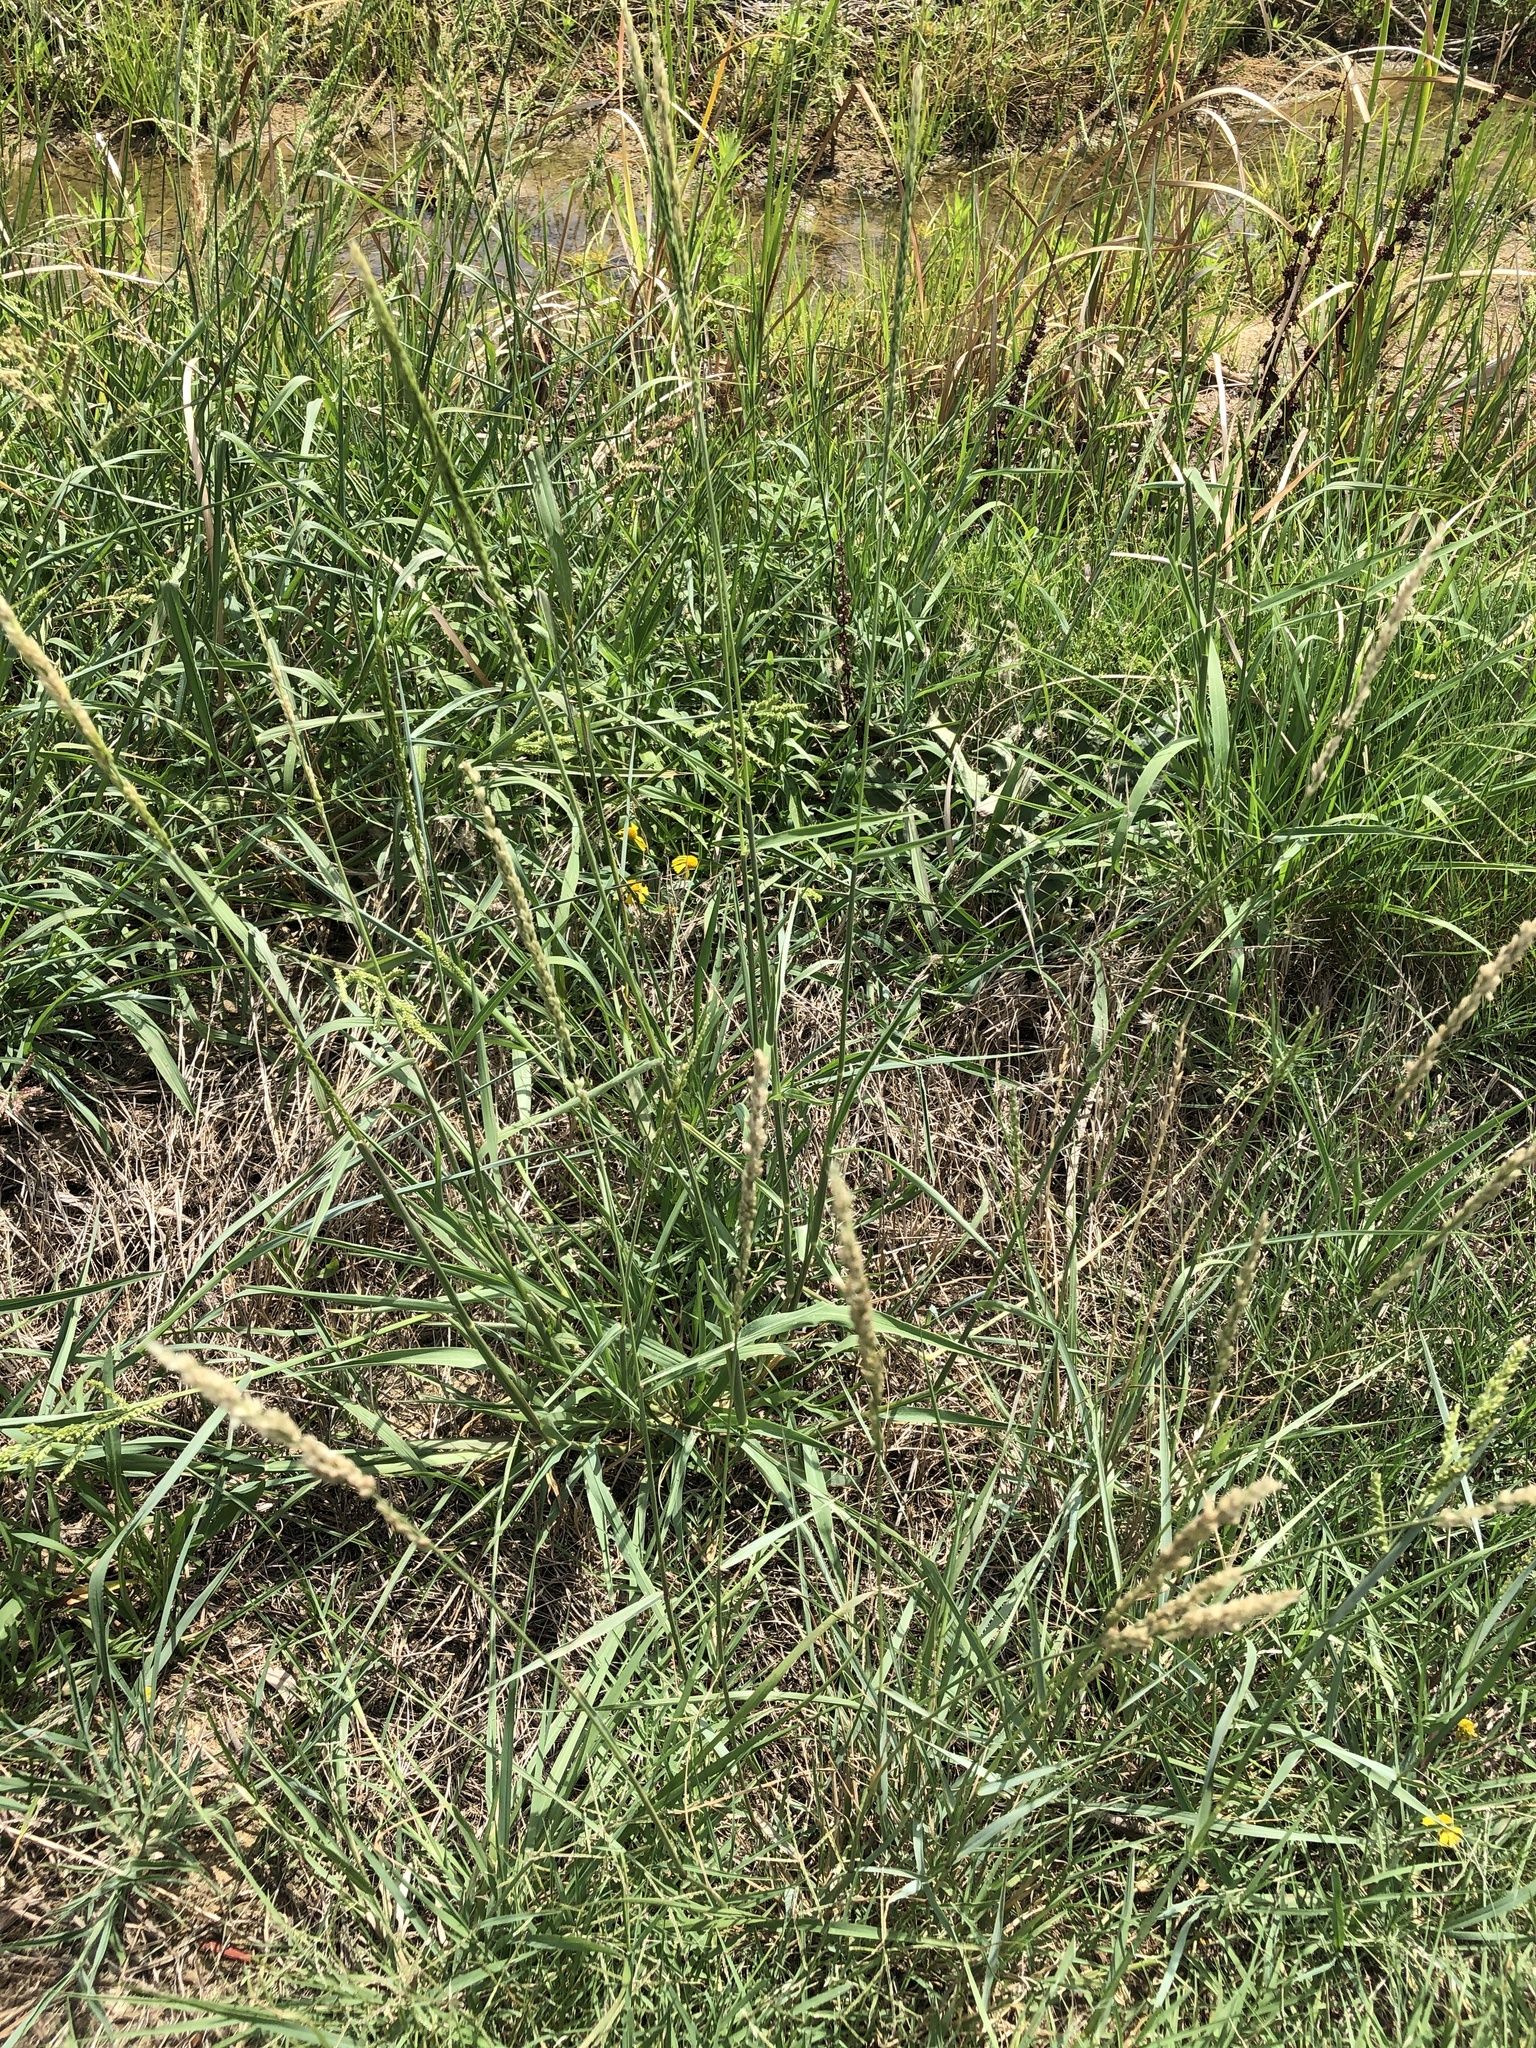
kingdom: Plantae
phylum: Tracheophyta
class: Liliopsida
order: Poales
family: Poaceae
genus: Tridens
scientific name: Tridens albescens
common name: White tridens
